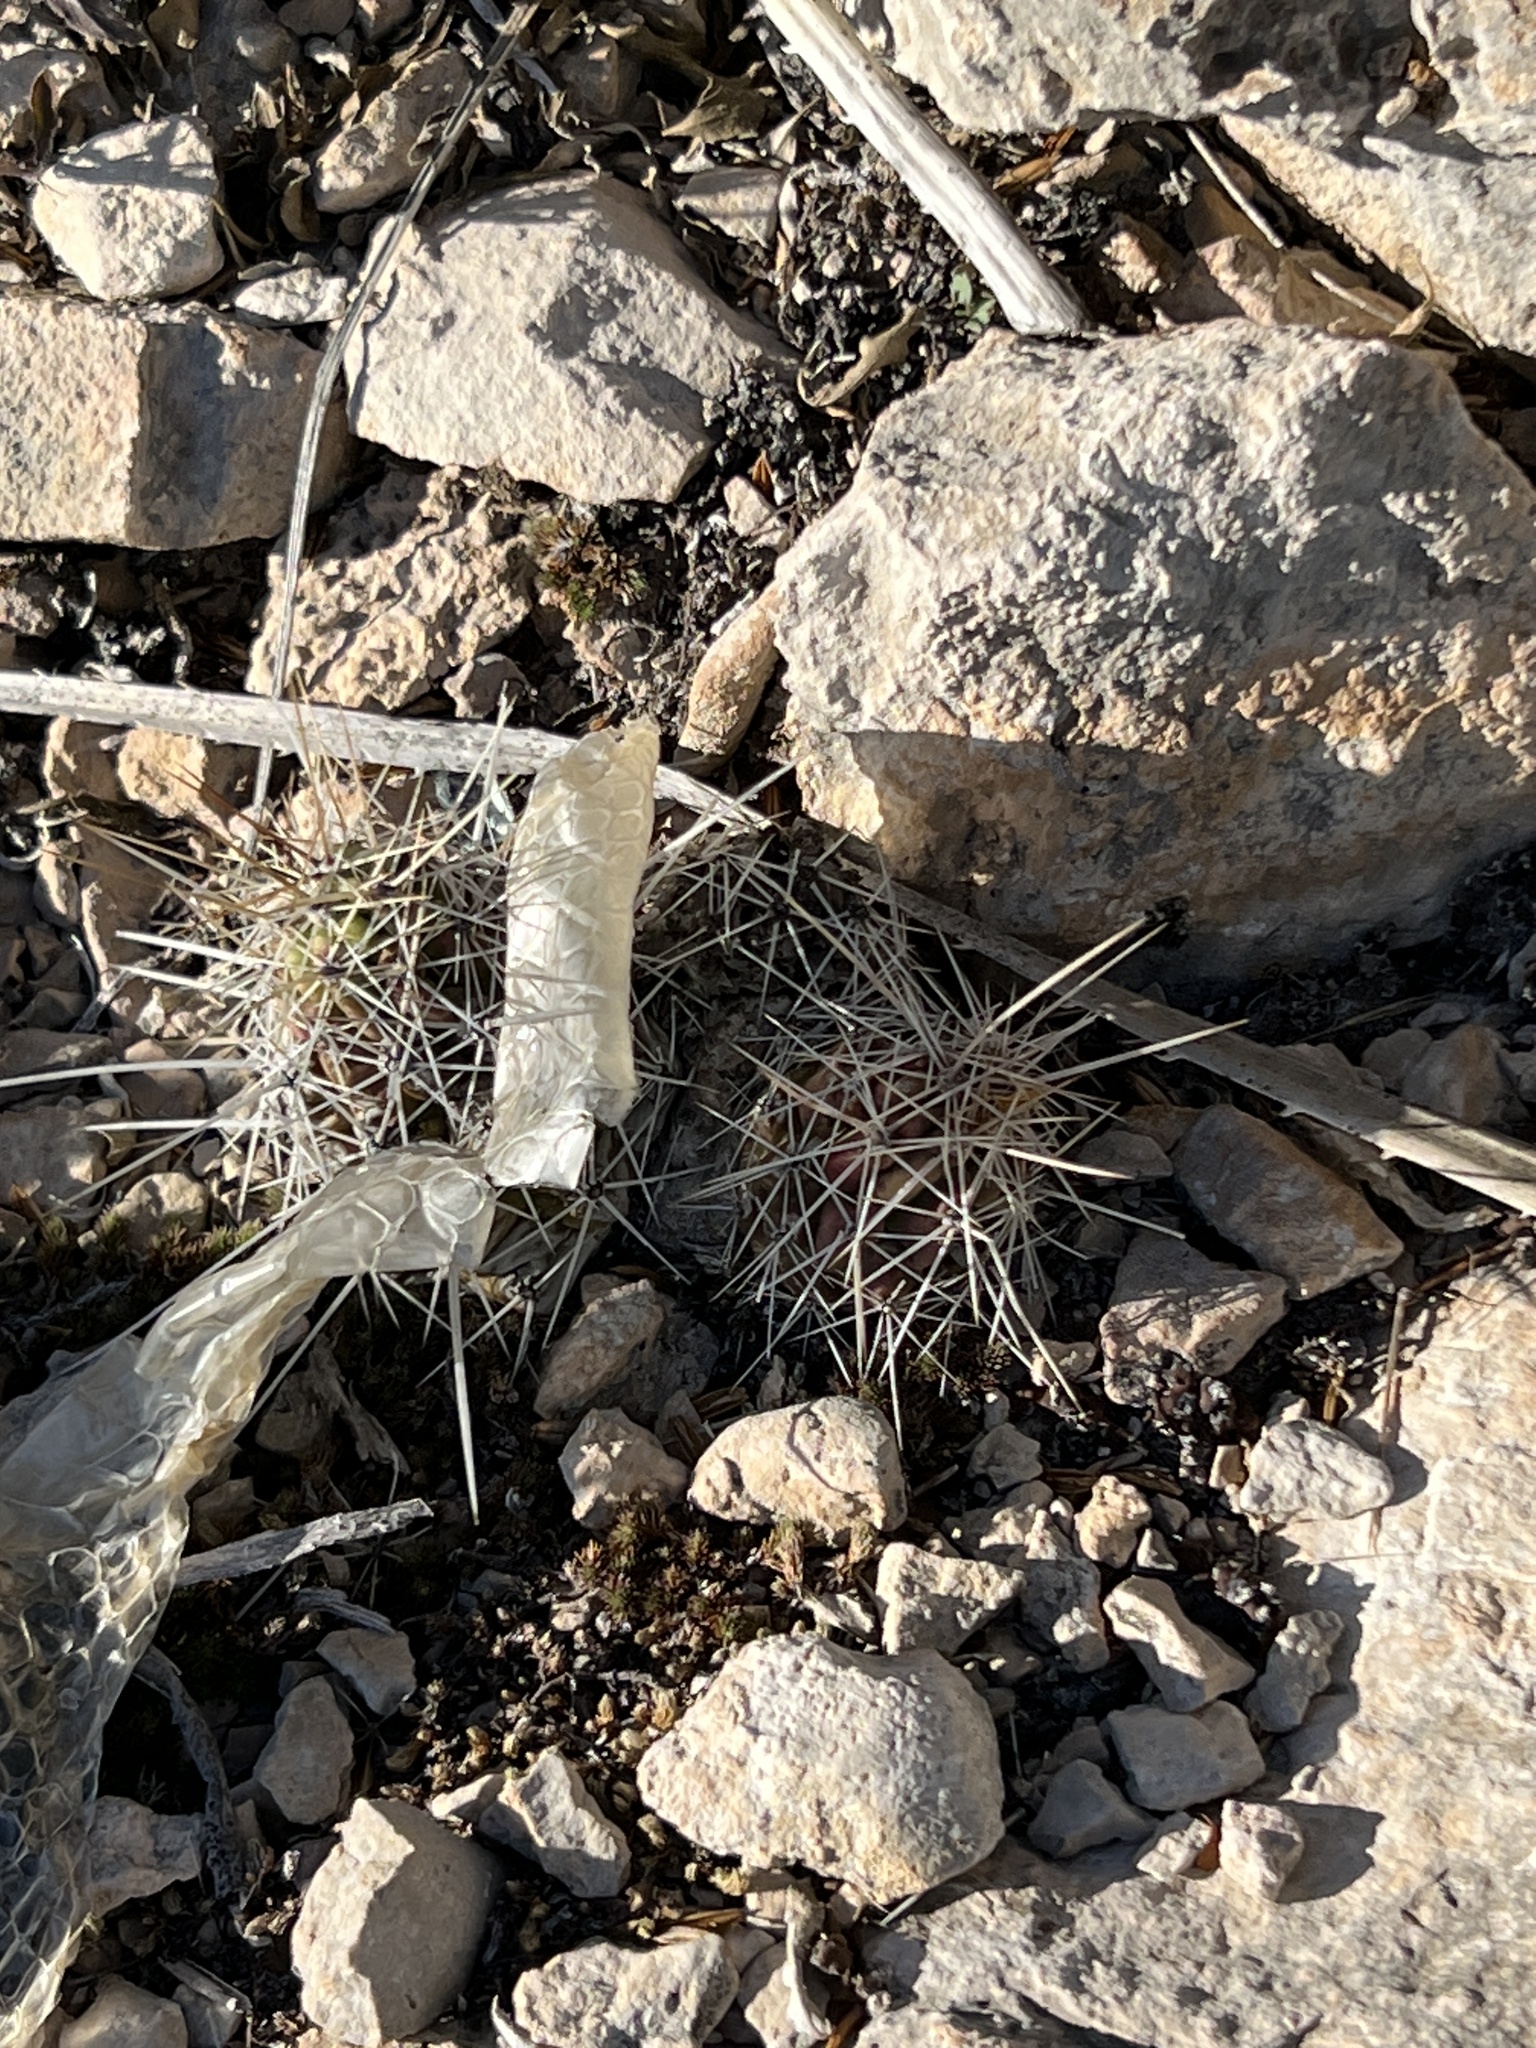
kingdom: Plantae
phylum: Tracheophyta
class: Magnoliopsida
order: Caryophyllales
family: Cactaceae
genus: Echinocereus
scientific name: Echinocereus enneacanthus
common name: Pitaya
